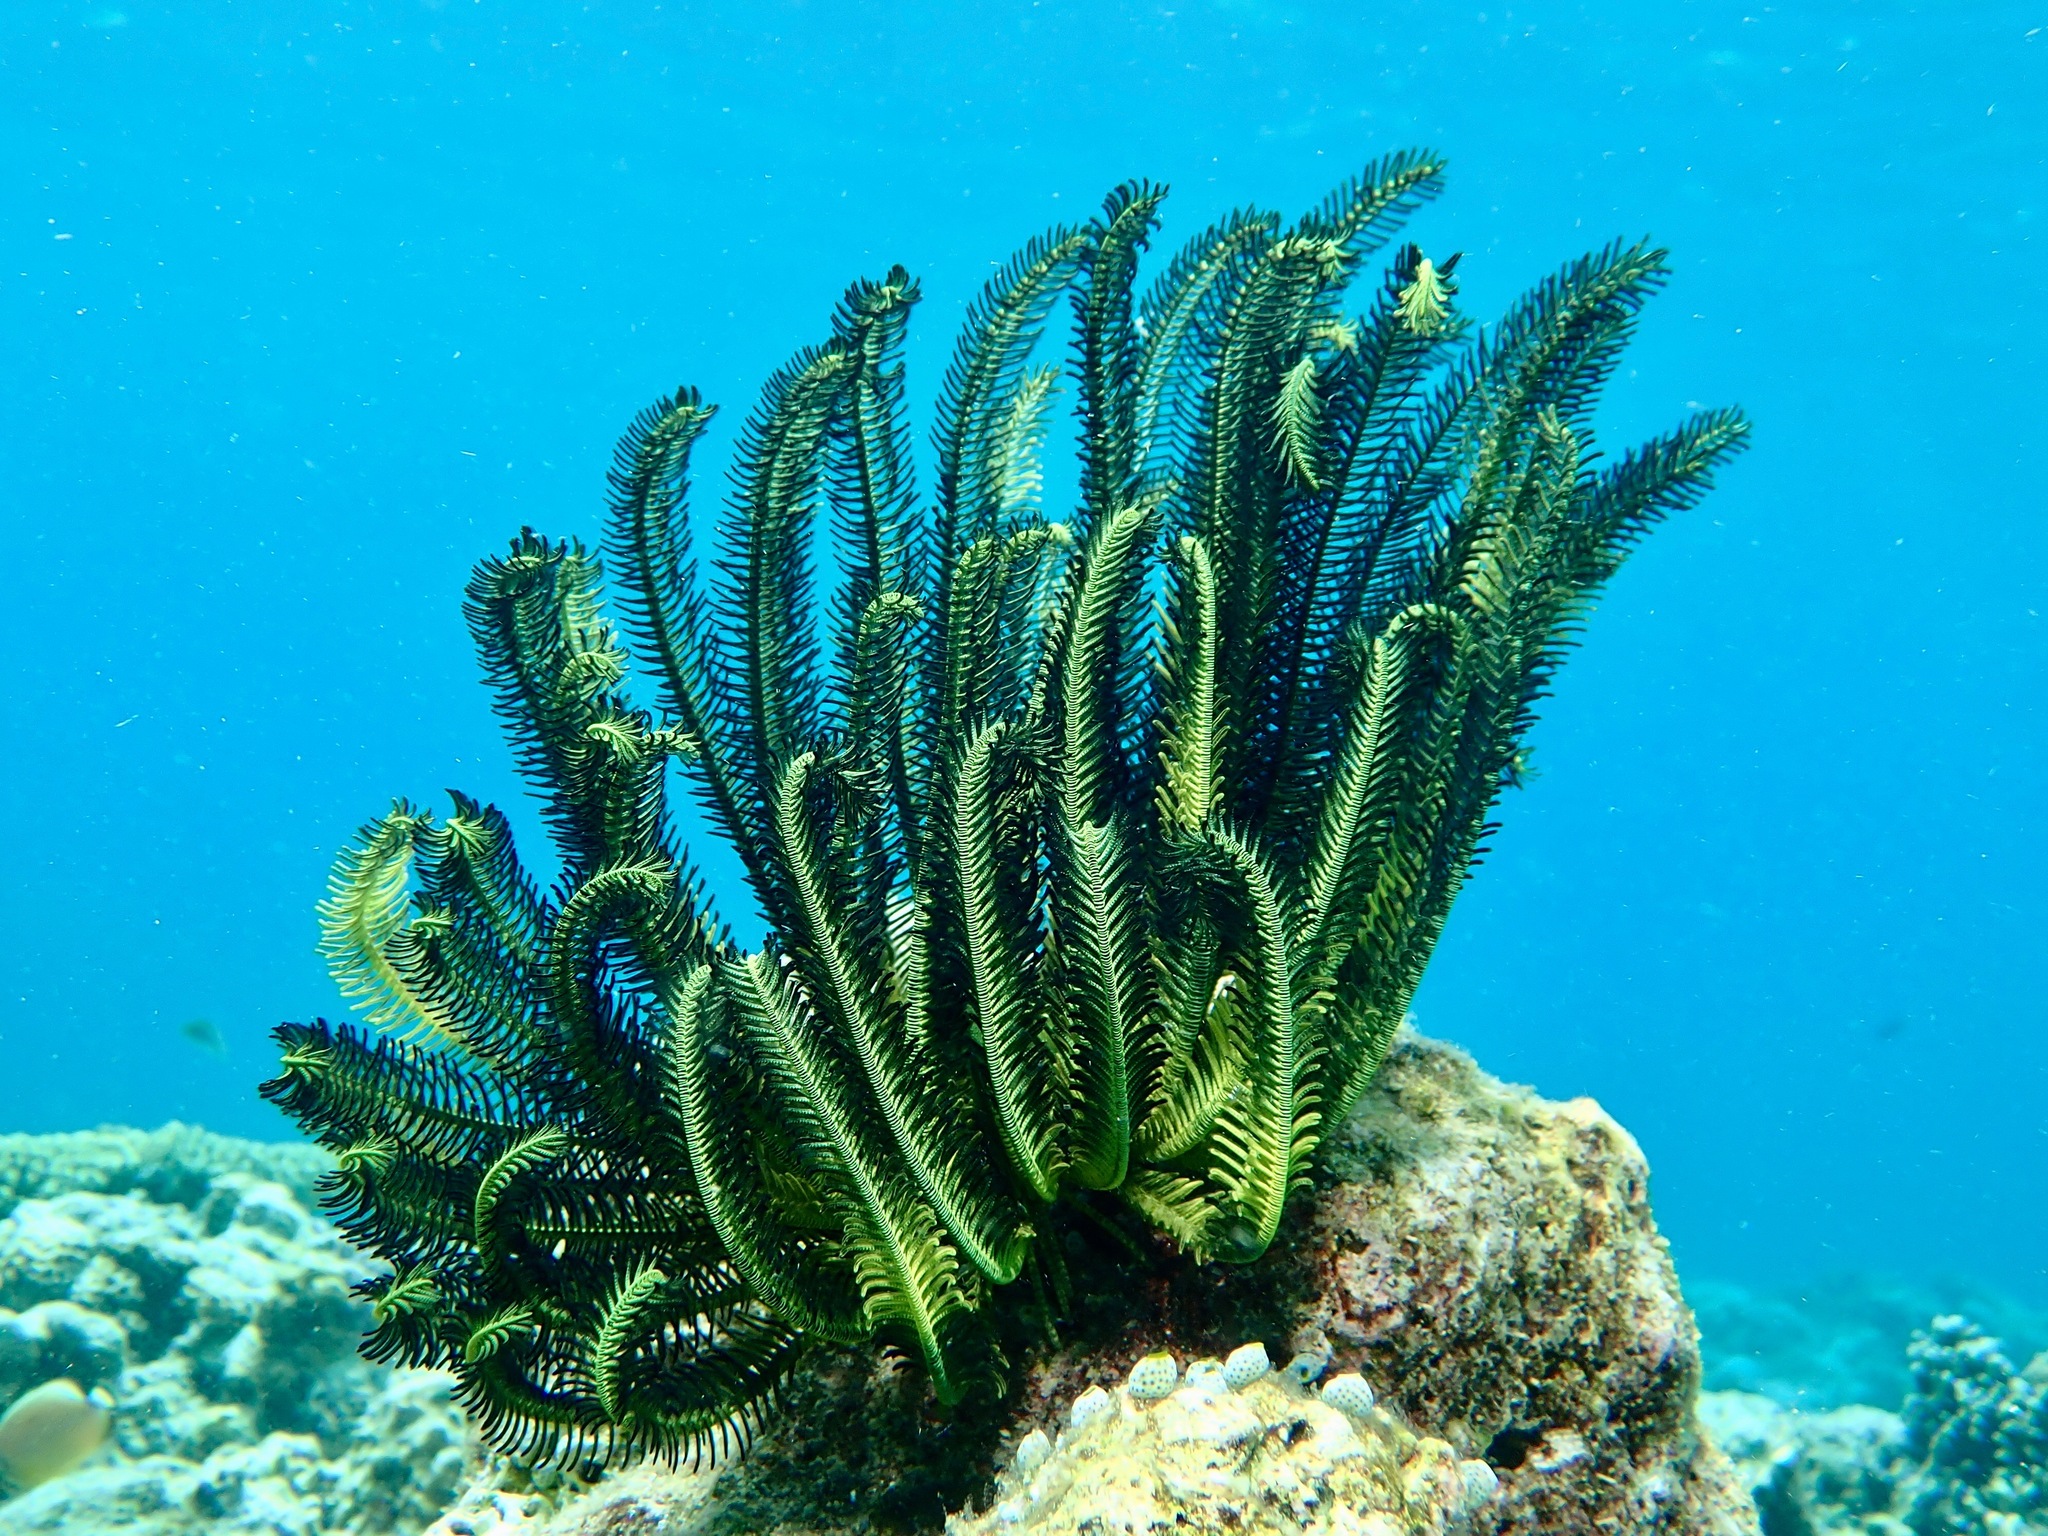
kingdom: Animalia
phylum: Echinodermata
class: Crinoidea
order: Comatulida
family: Comatulidae
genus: Anneissia
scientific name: Anneissia bennetti
